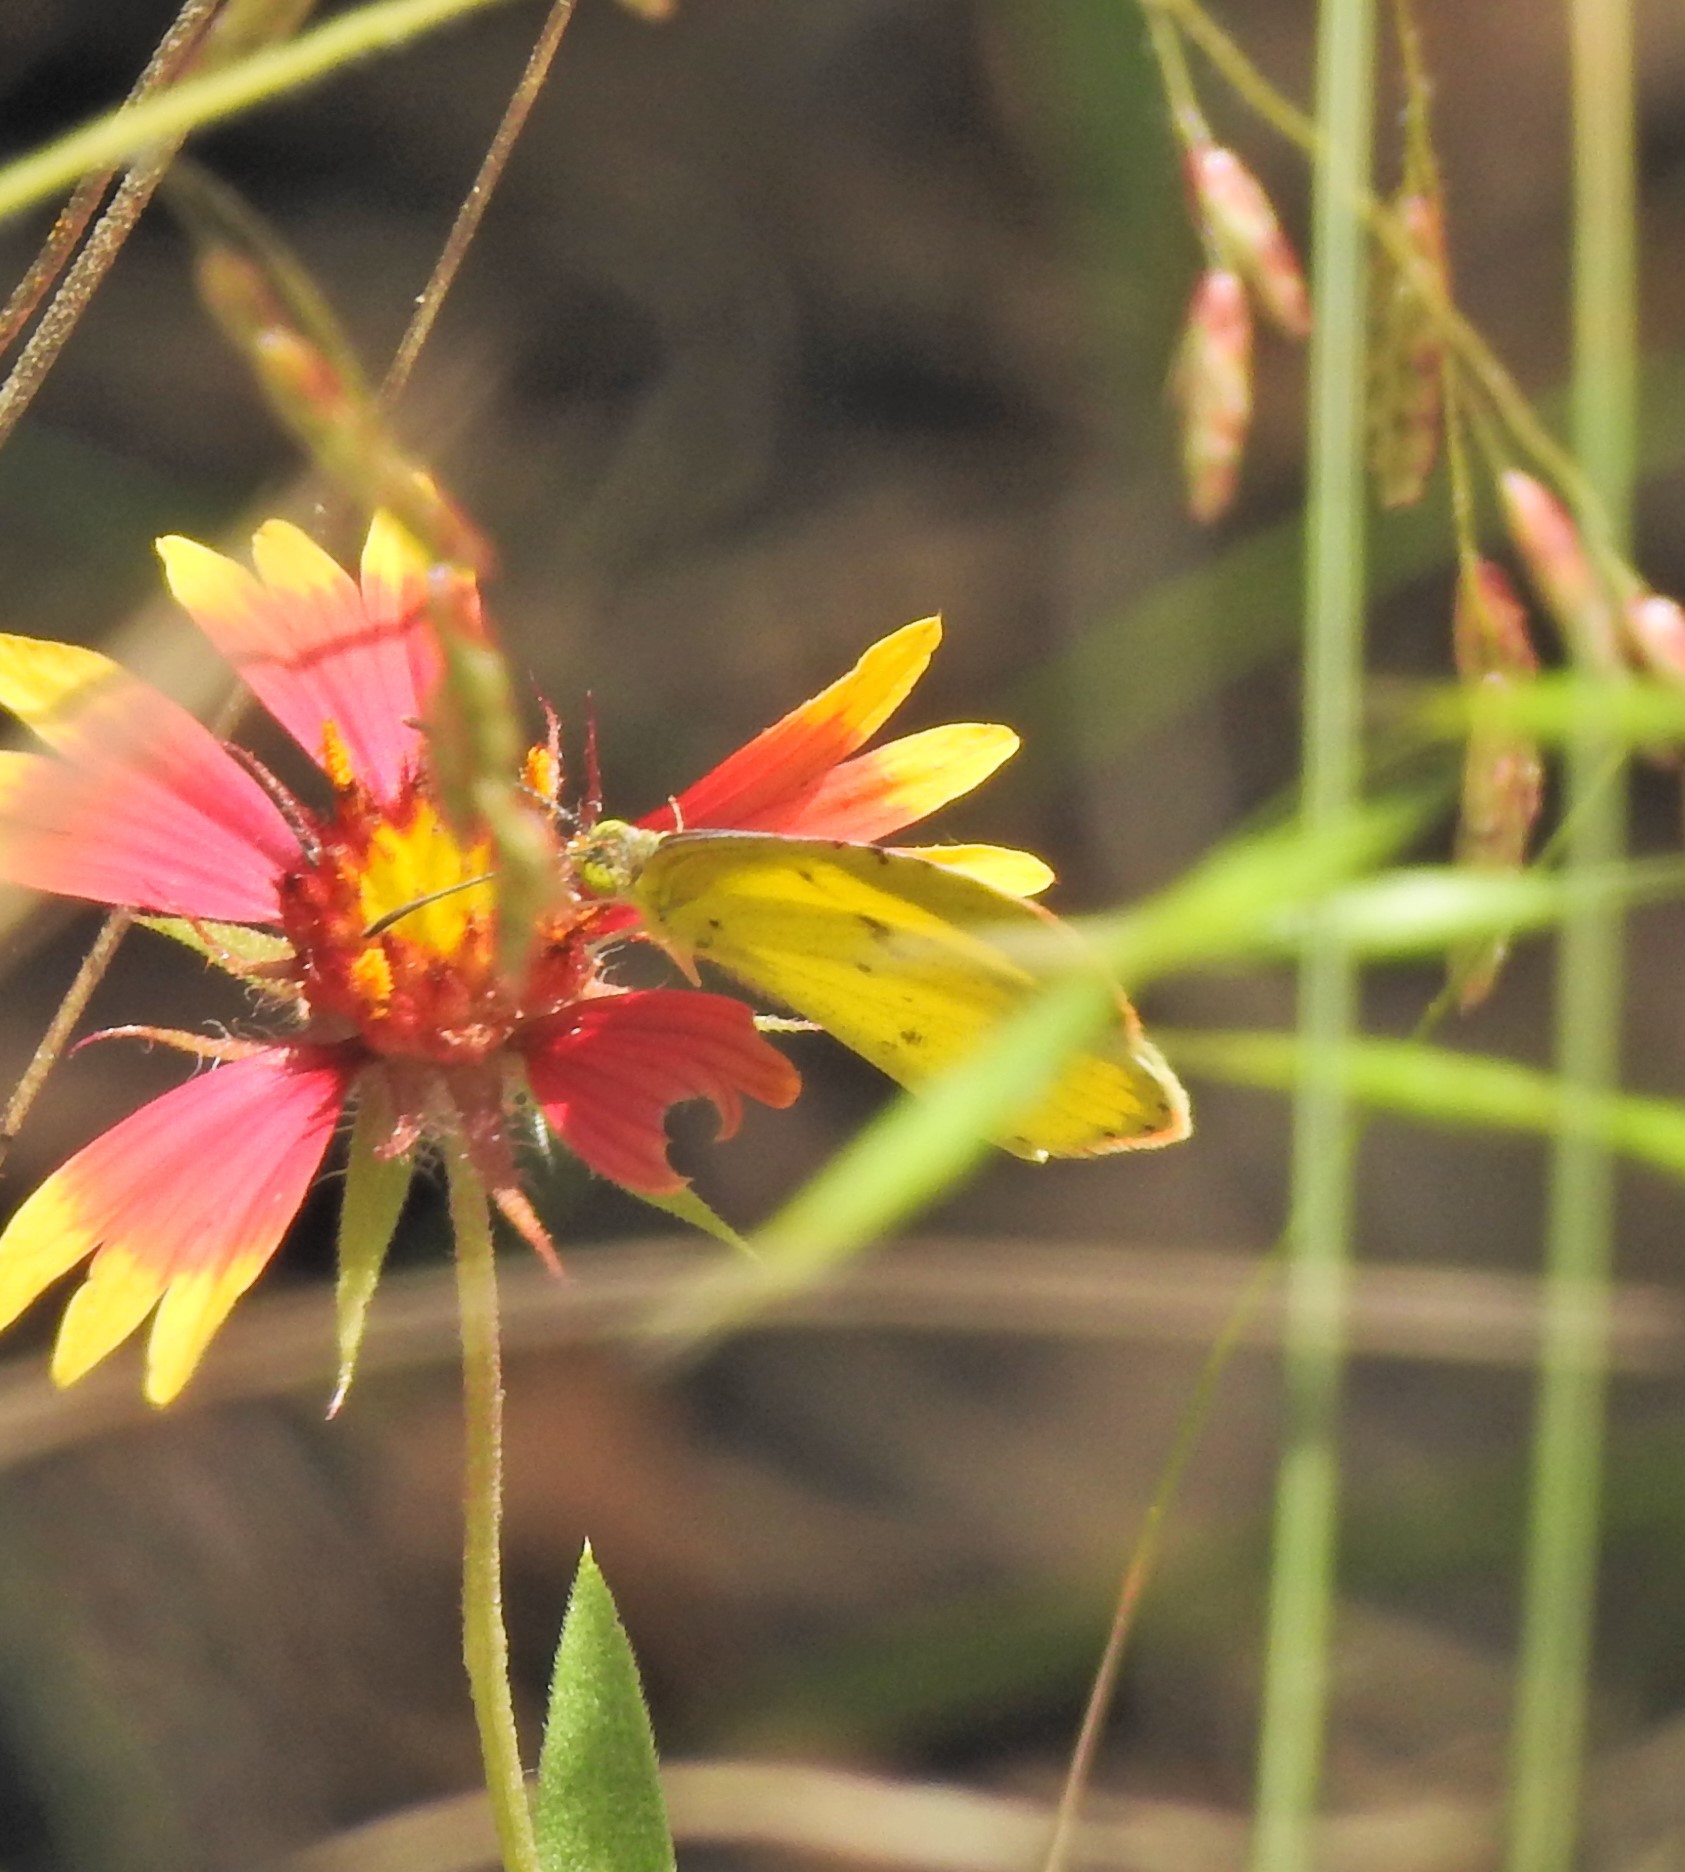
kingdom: Animalia
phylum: Arthropoda
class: Insecta
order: Lepidoptera
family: Pieridae
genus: Pyrisitia
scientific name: Pyrisitia lisa
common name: Little yellow
